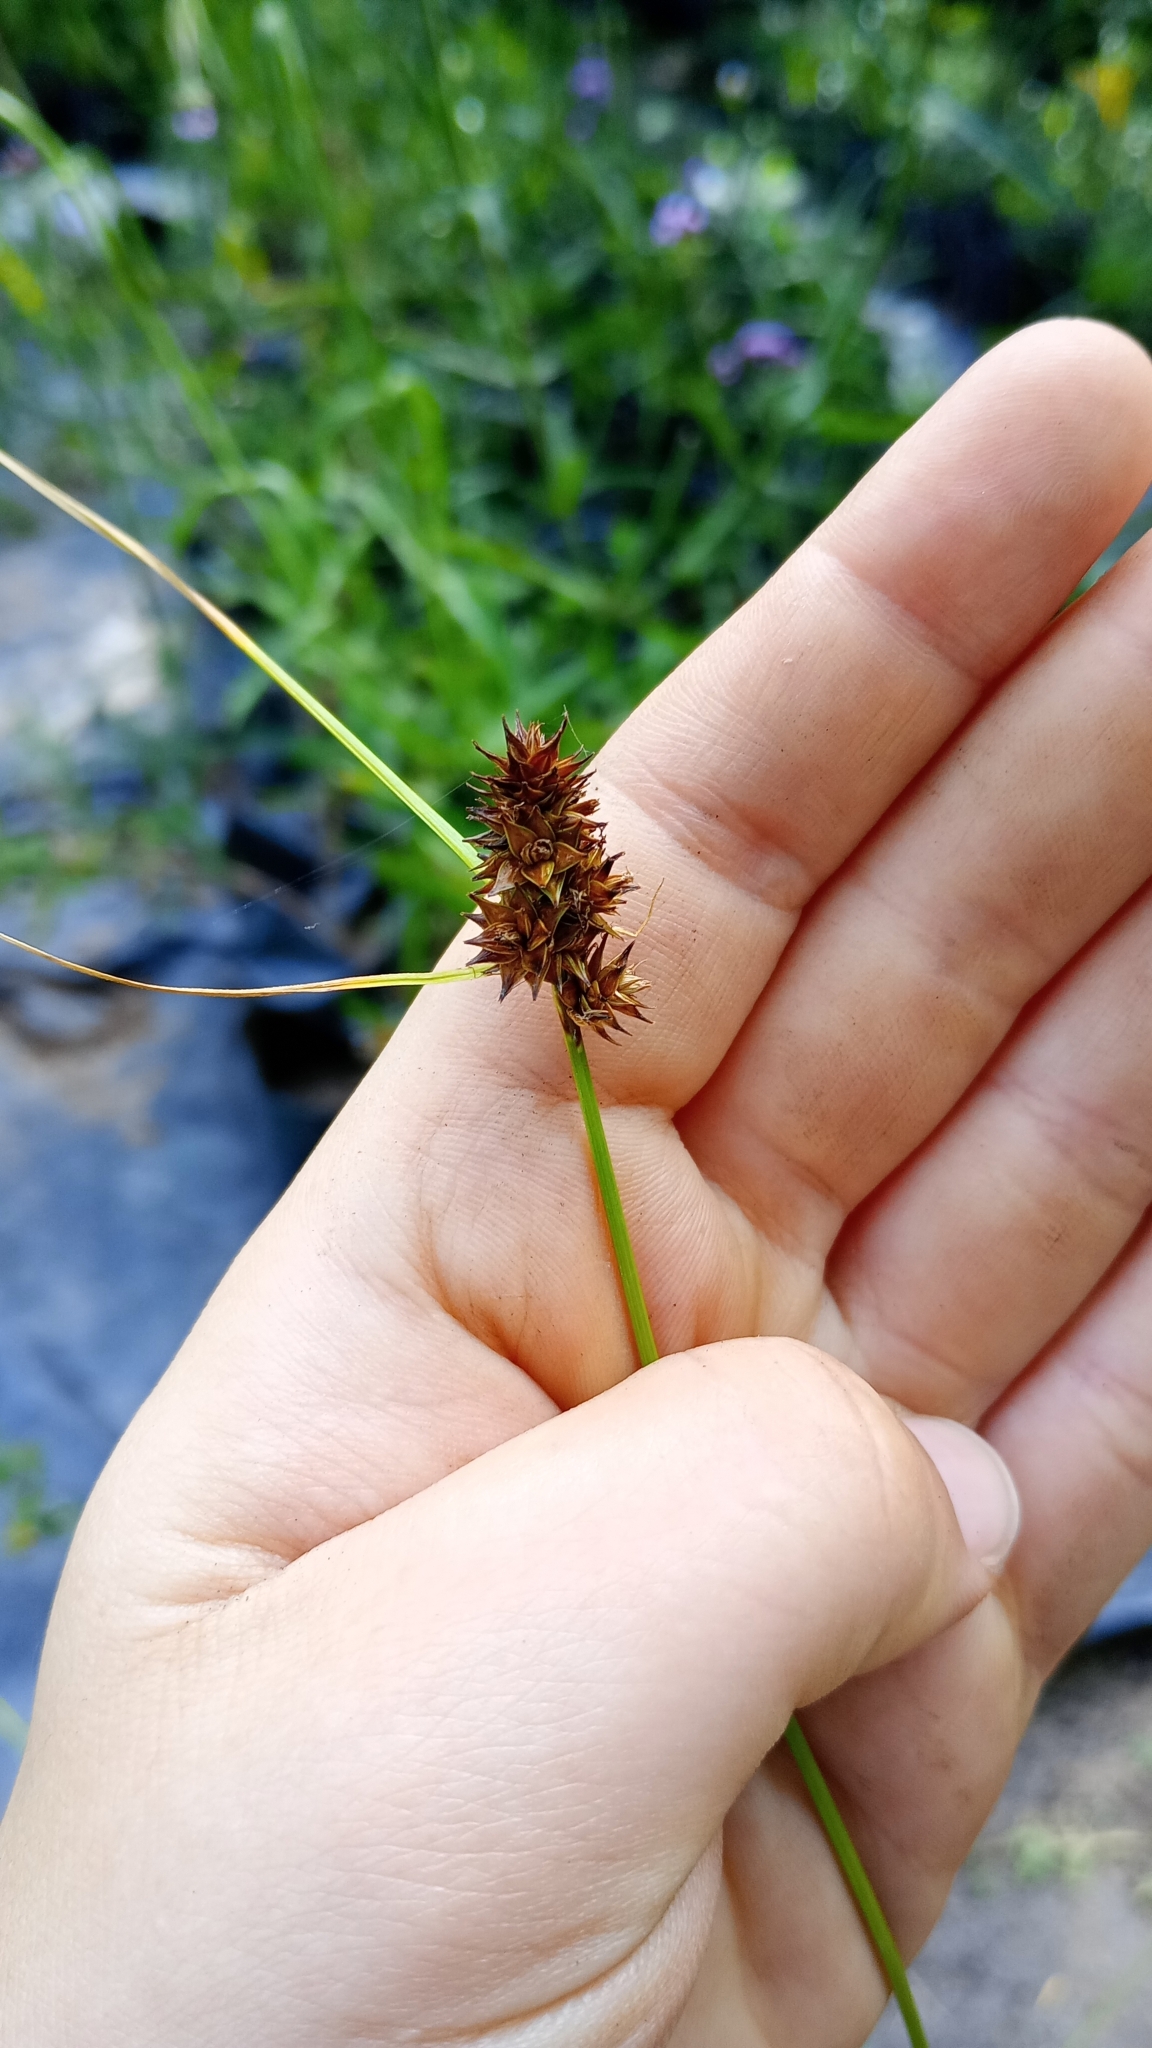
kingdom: Plantae
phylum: Tracheophyta
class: Liliopsida
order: Poales
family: Cyperaceae
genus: Carex
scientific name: Carex sororia
